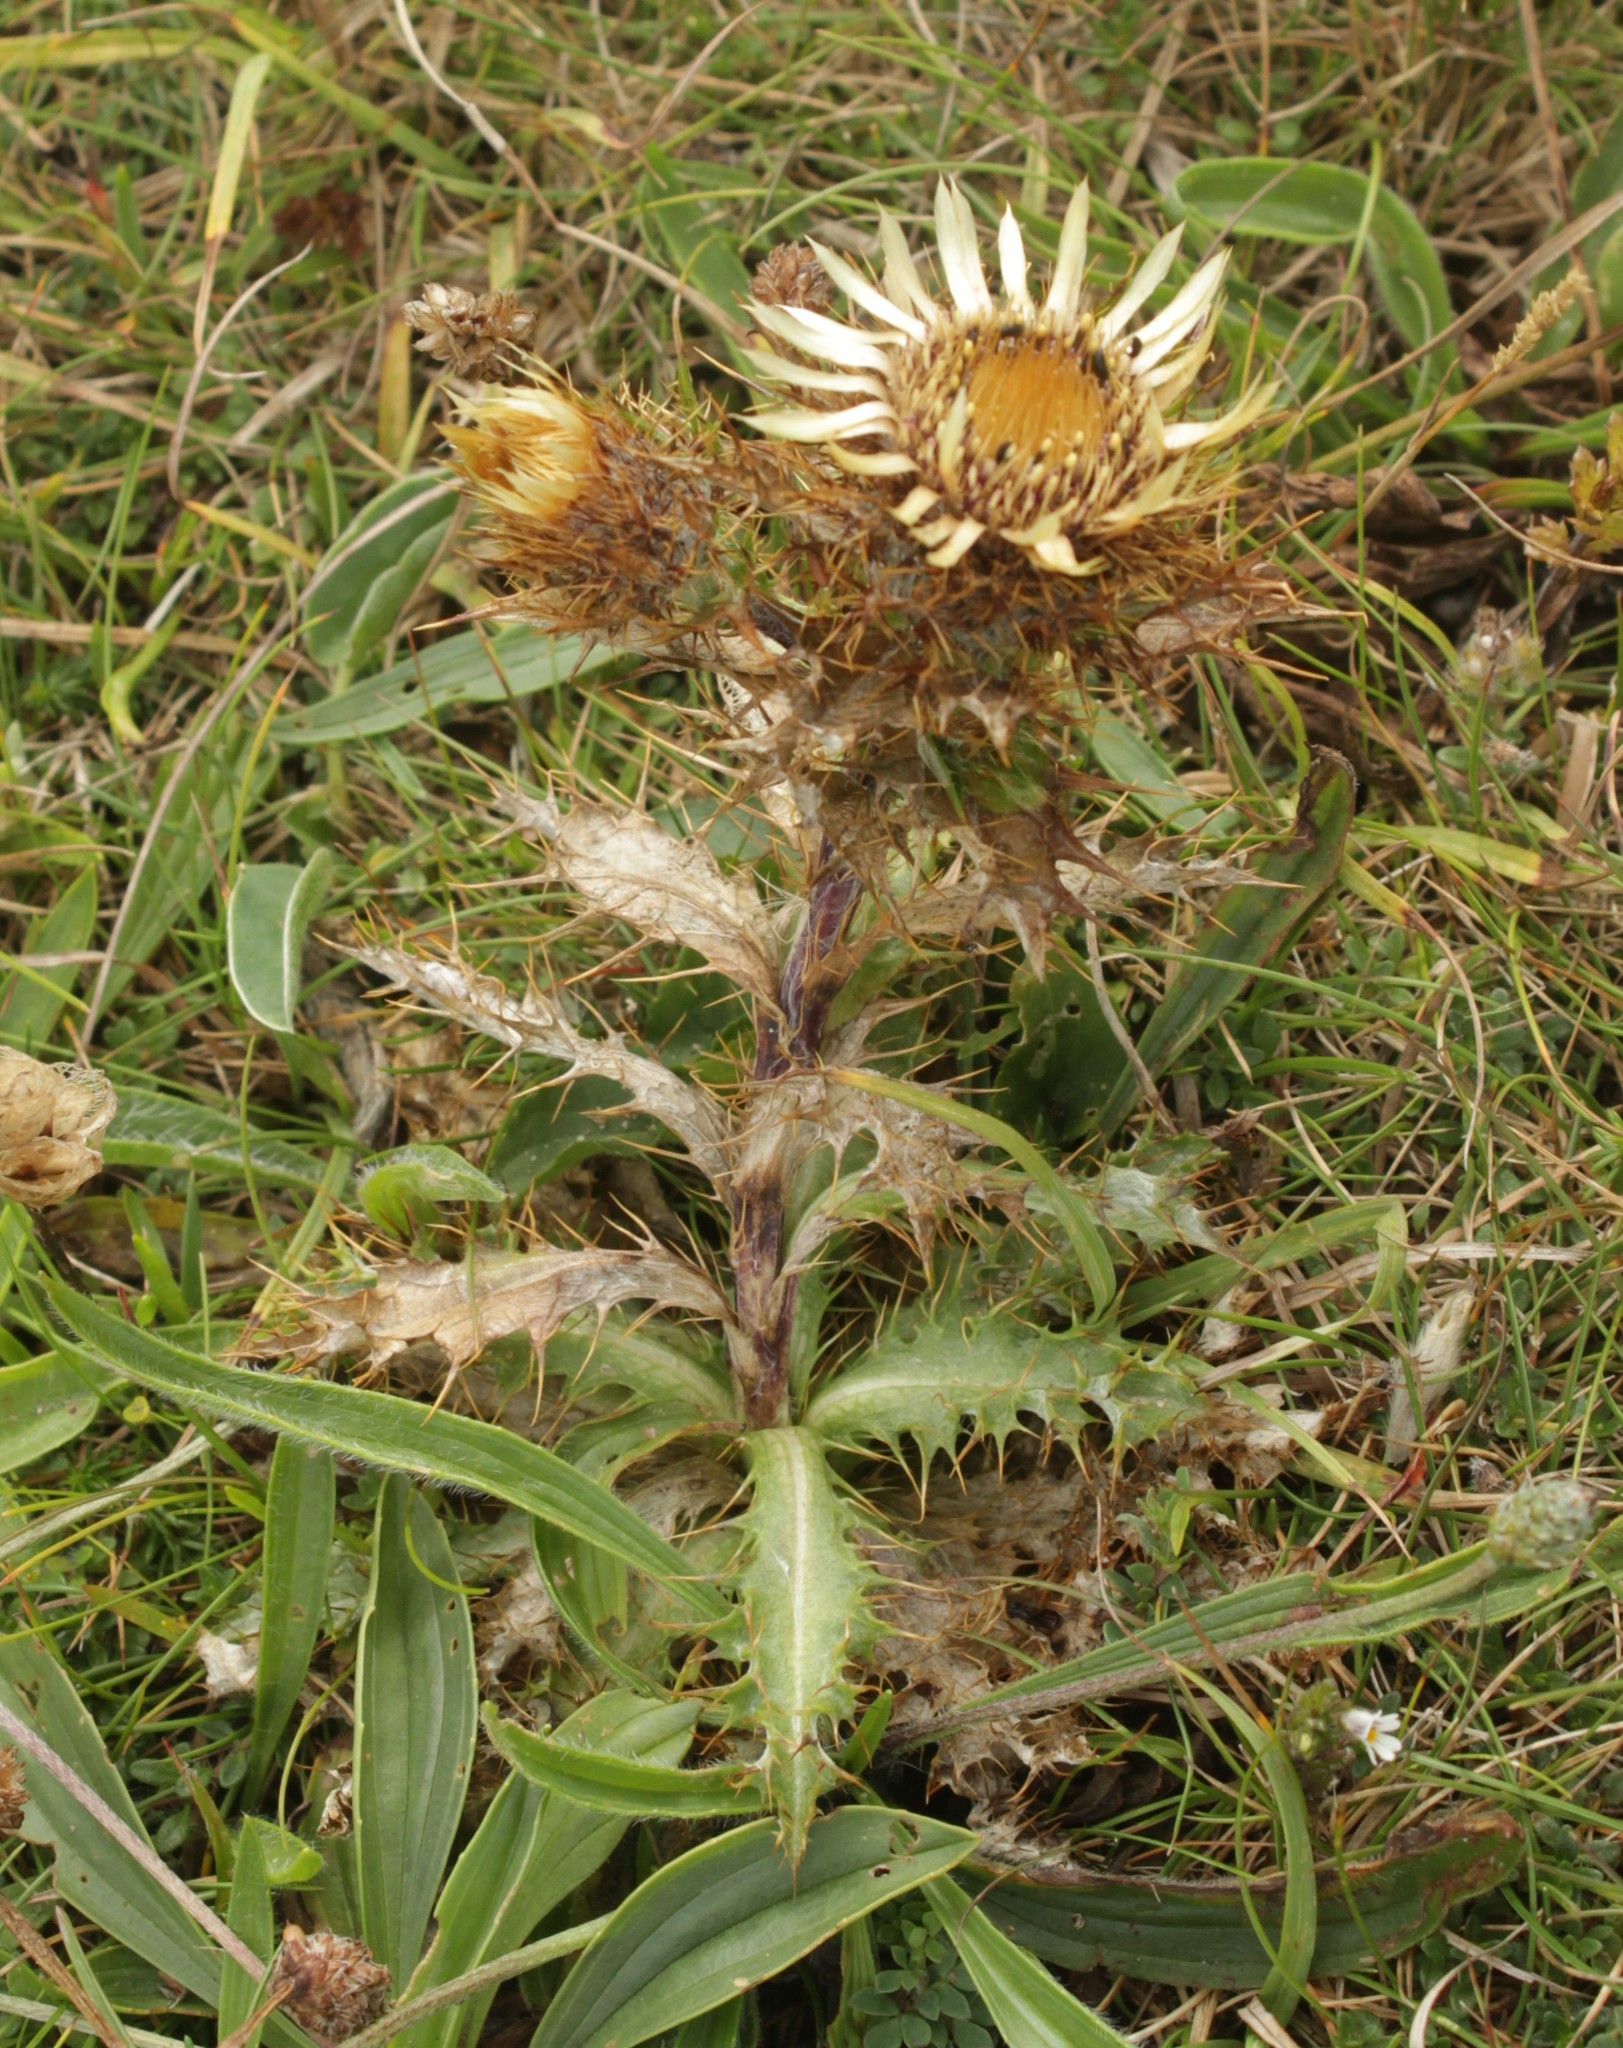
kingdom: Plantae
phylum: Tracheophyta
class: Magnoliopsida
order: Asterales
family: Asteraceae
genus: Carlina
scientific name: Carlina vulgaris
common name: Carline thistle
